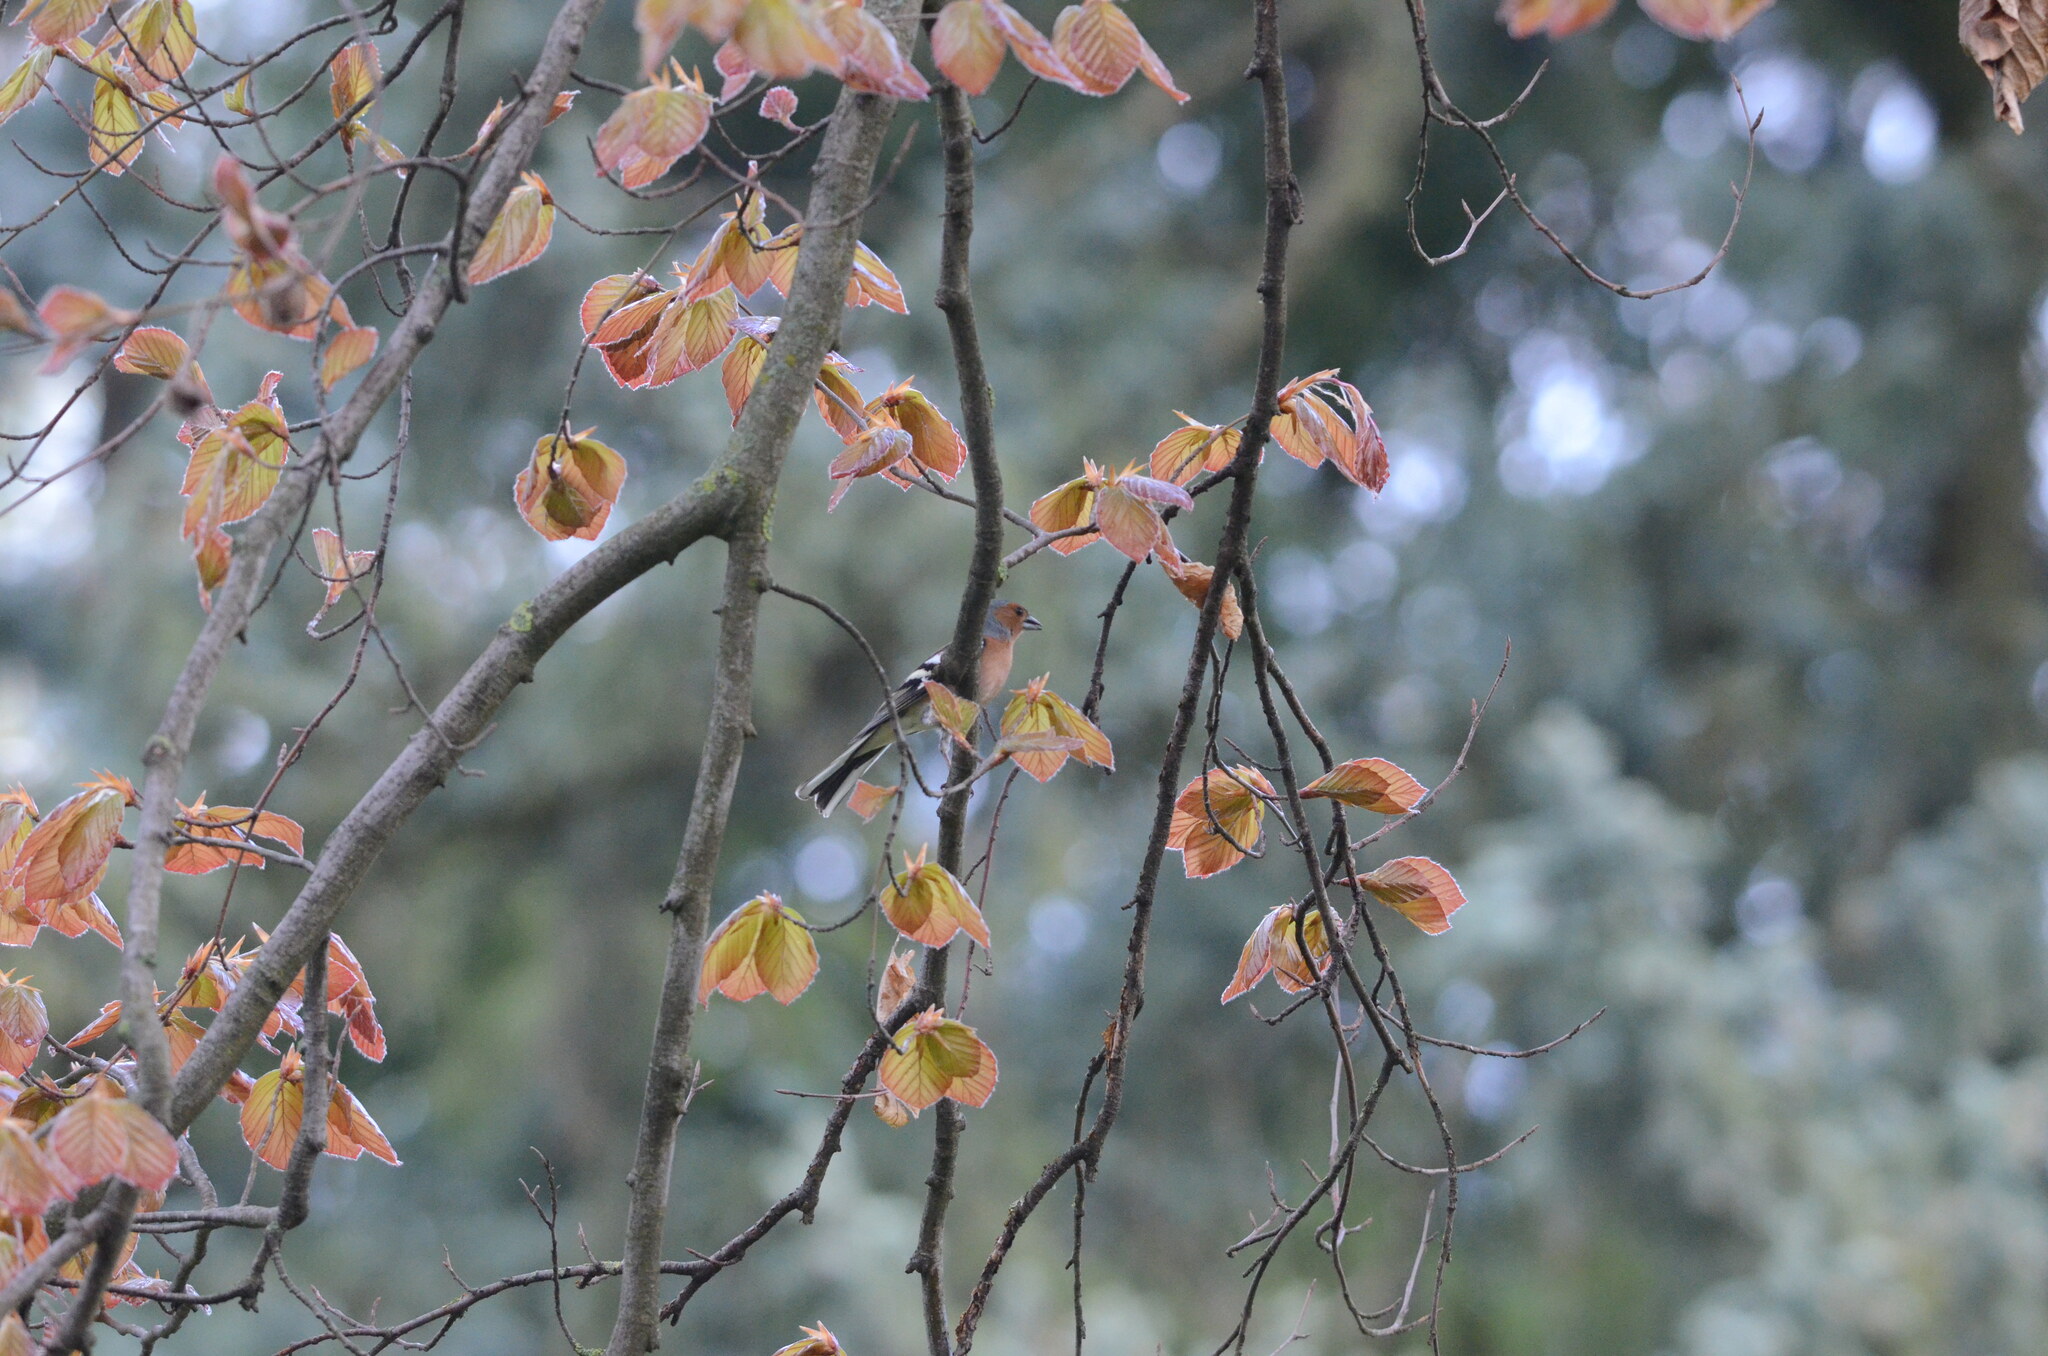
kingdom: Animalia
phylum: Chordata
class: Aves
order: Passeriformes
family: Fringillidae
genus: Fringilla
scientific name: Fringilla coelebs
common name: Common chaffinch
